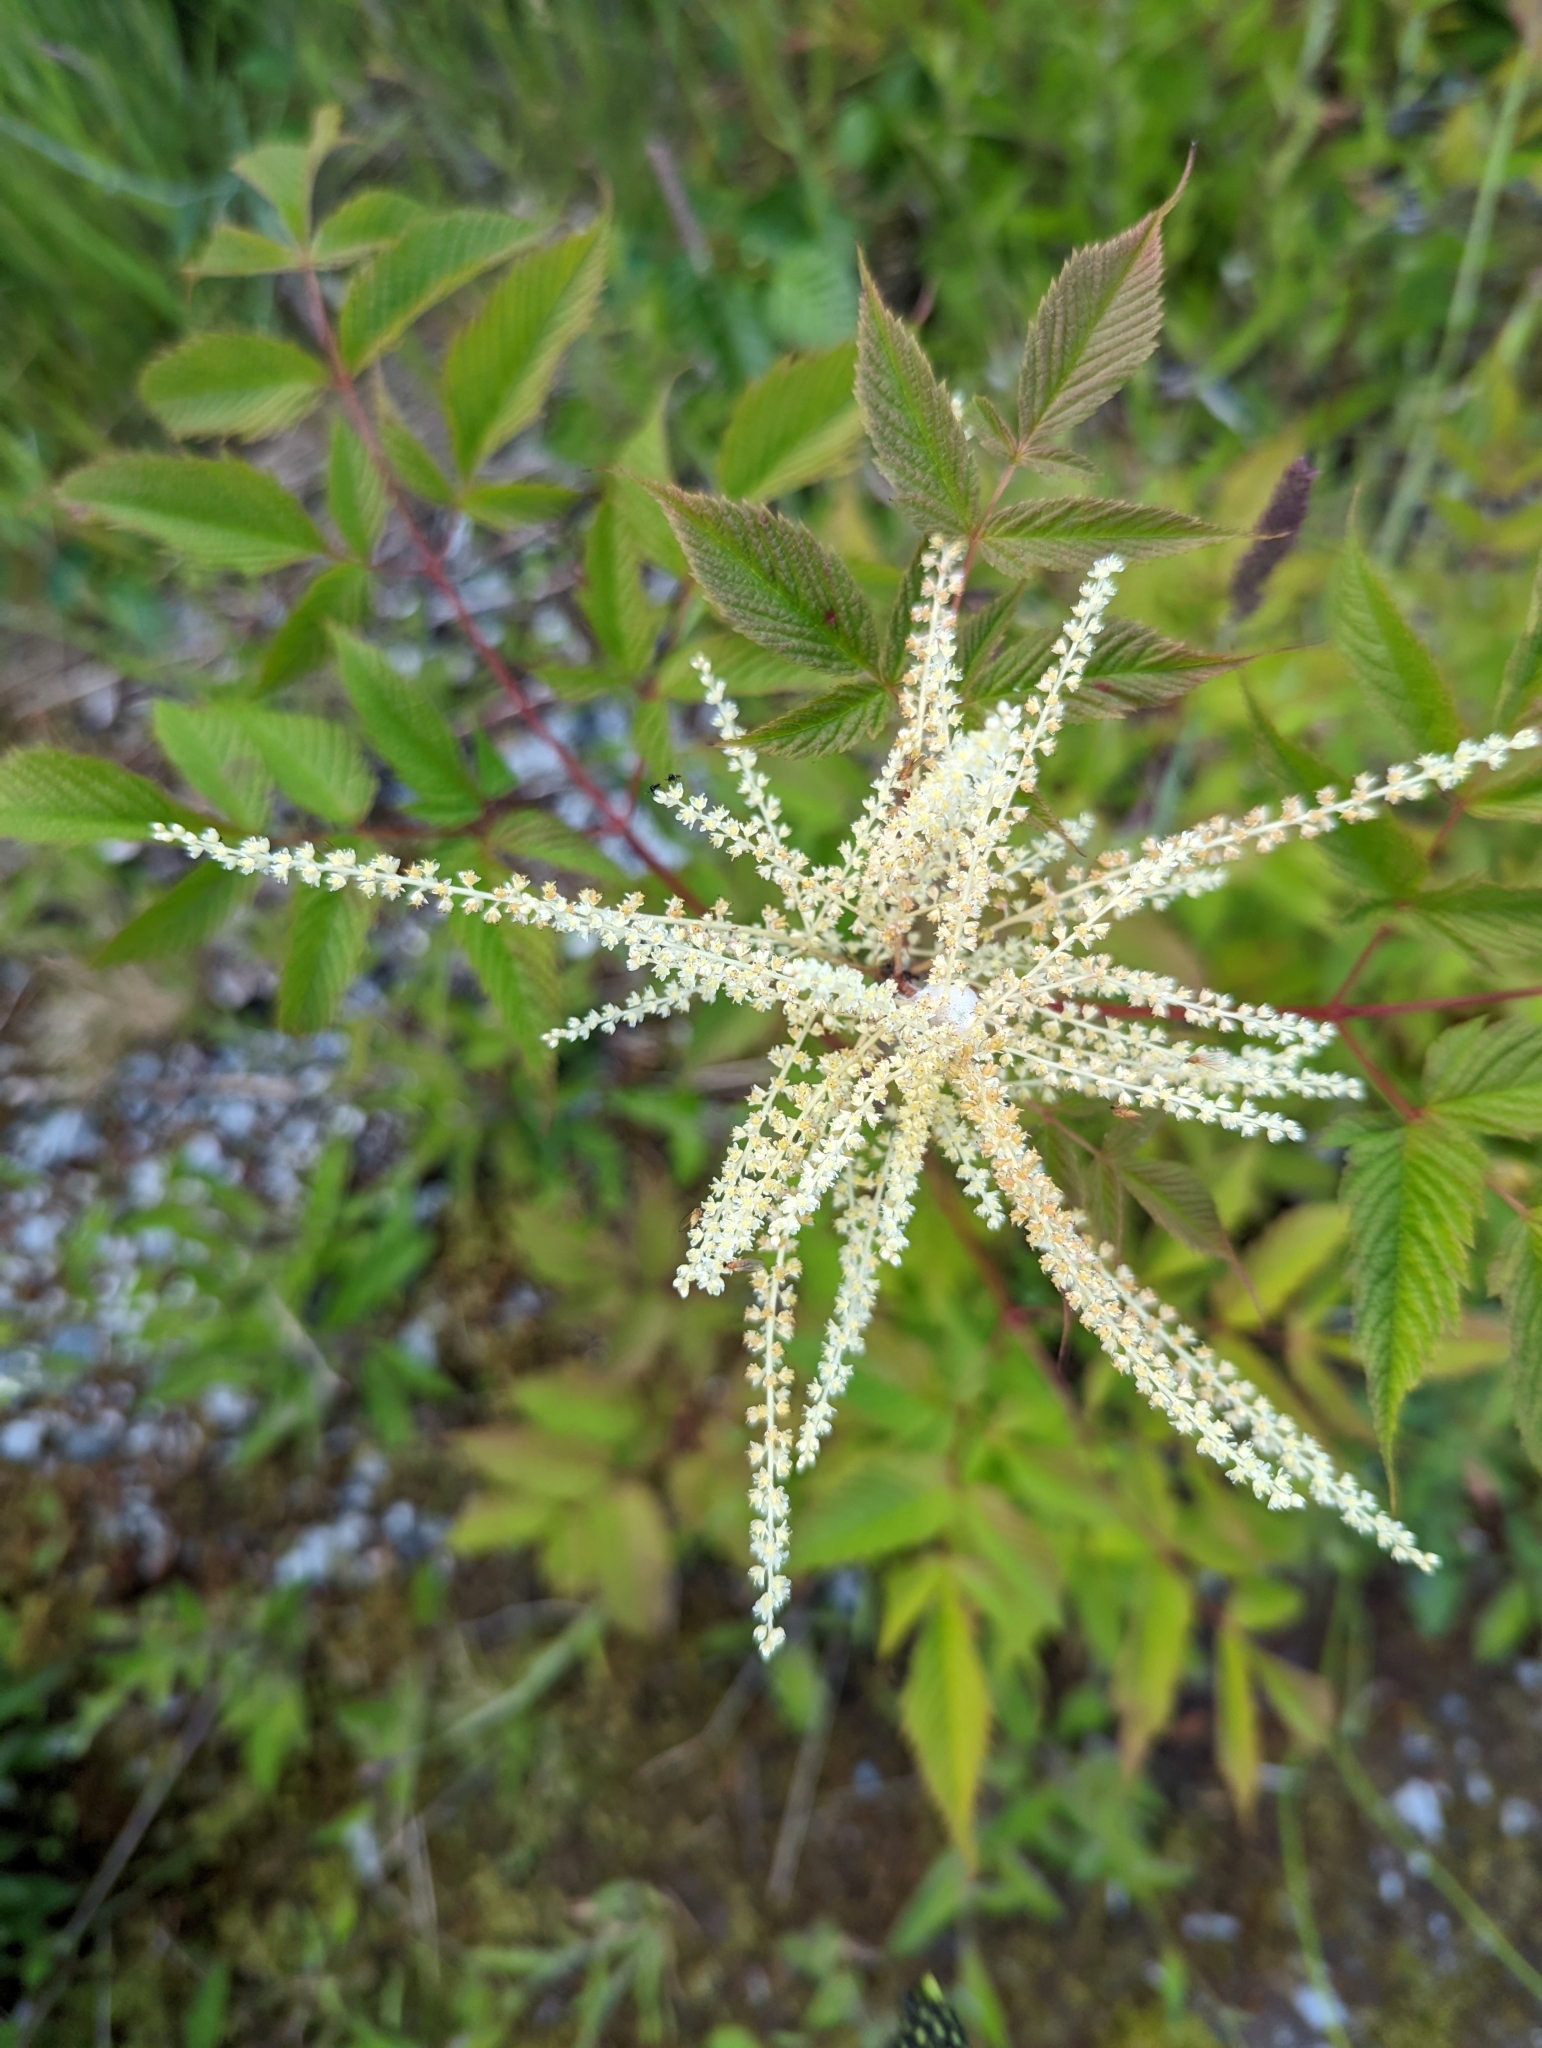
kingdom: Plantae
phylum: Tracheophyta
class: Magnoliopsida
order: Rosales
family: Rosaceae
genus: Aruncus
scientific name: Aruncus dioicus
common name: Buck's-beard
